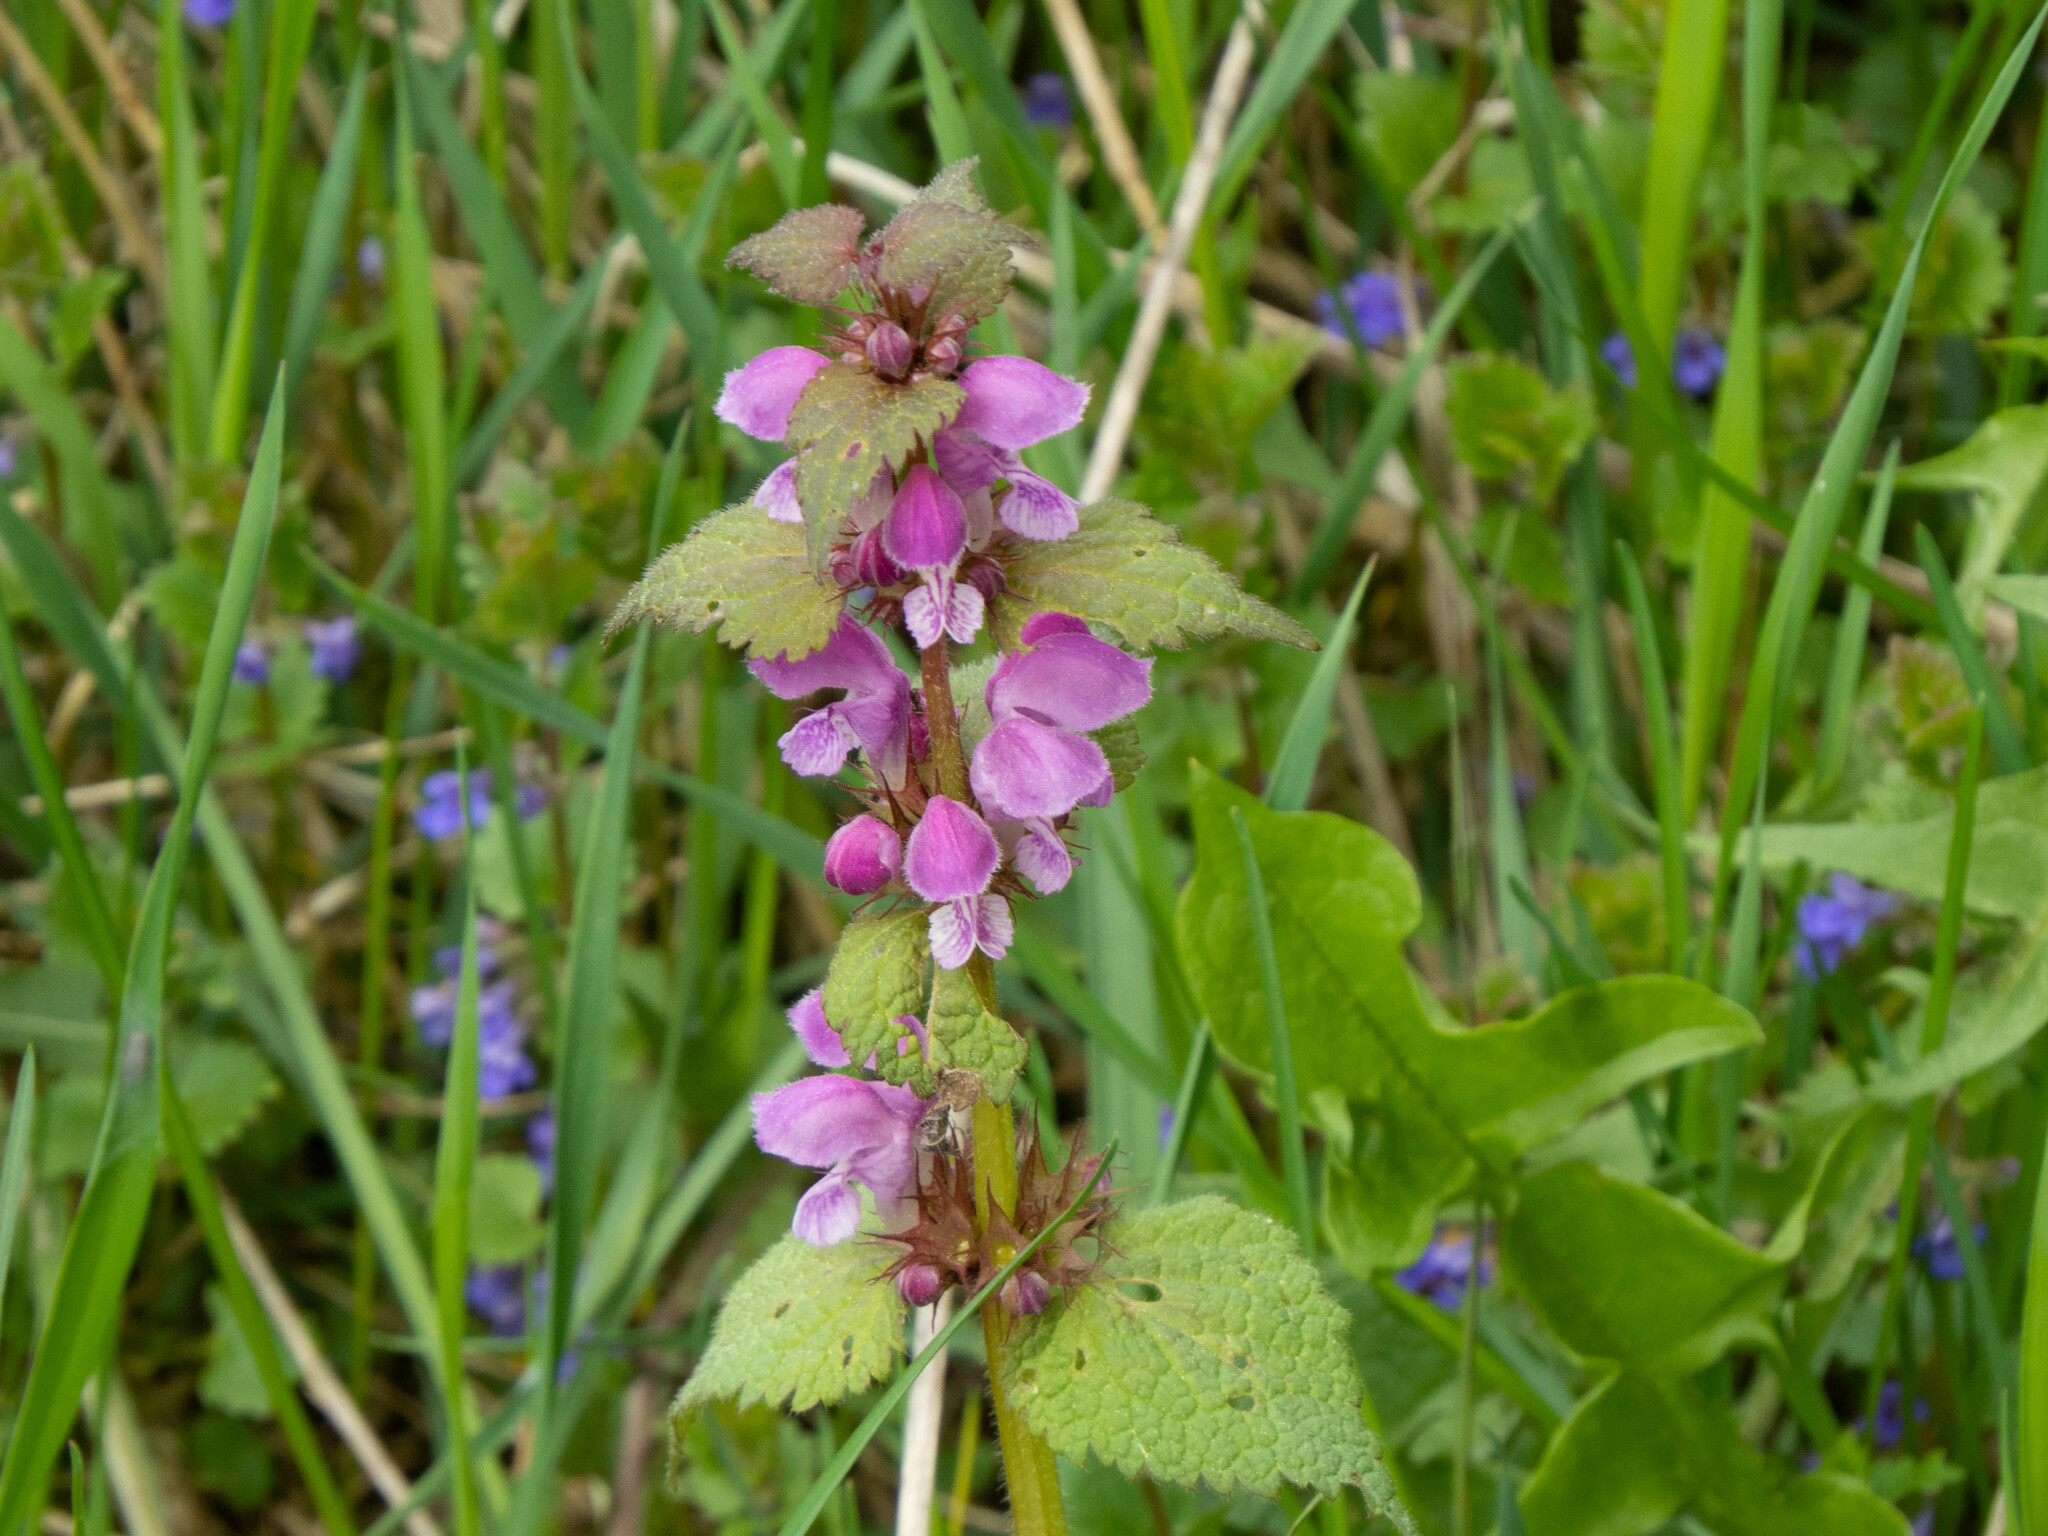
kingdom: Plantae
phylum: Tracheophyta
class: Magnoliopsida
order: Lamiales
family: Lamiaceae
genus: Lamium
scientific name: Lamium maculatum
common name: Spotted dead-nettle
